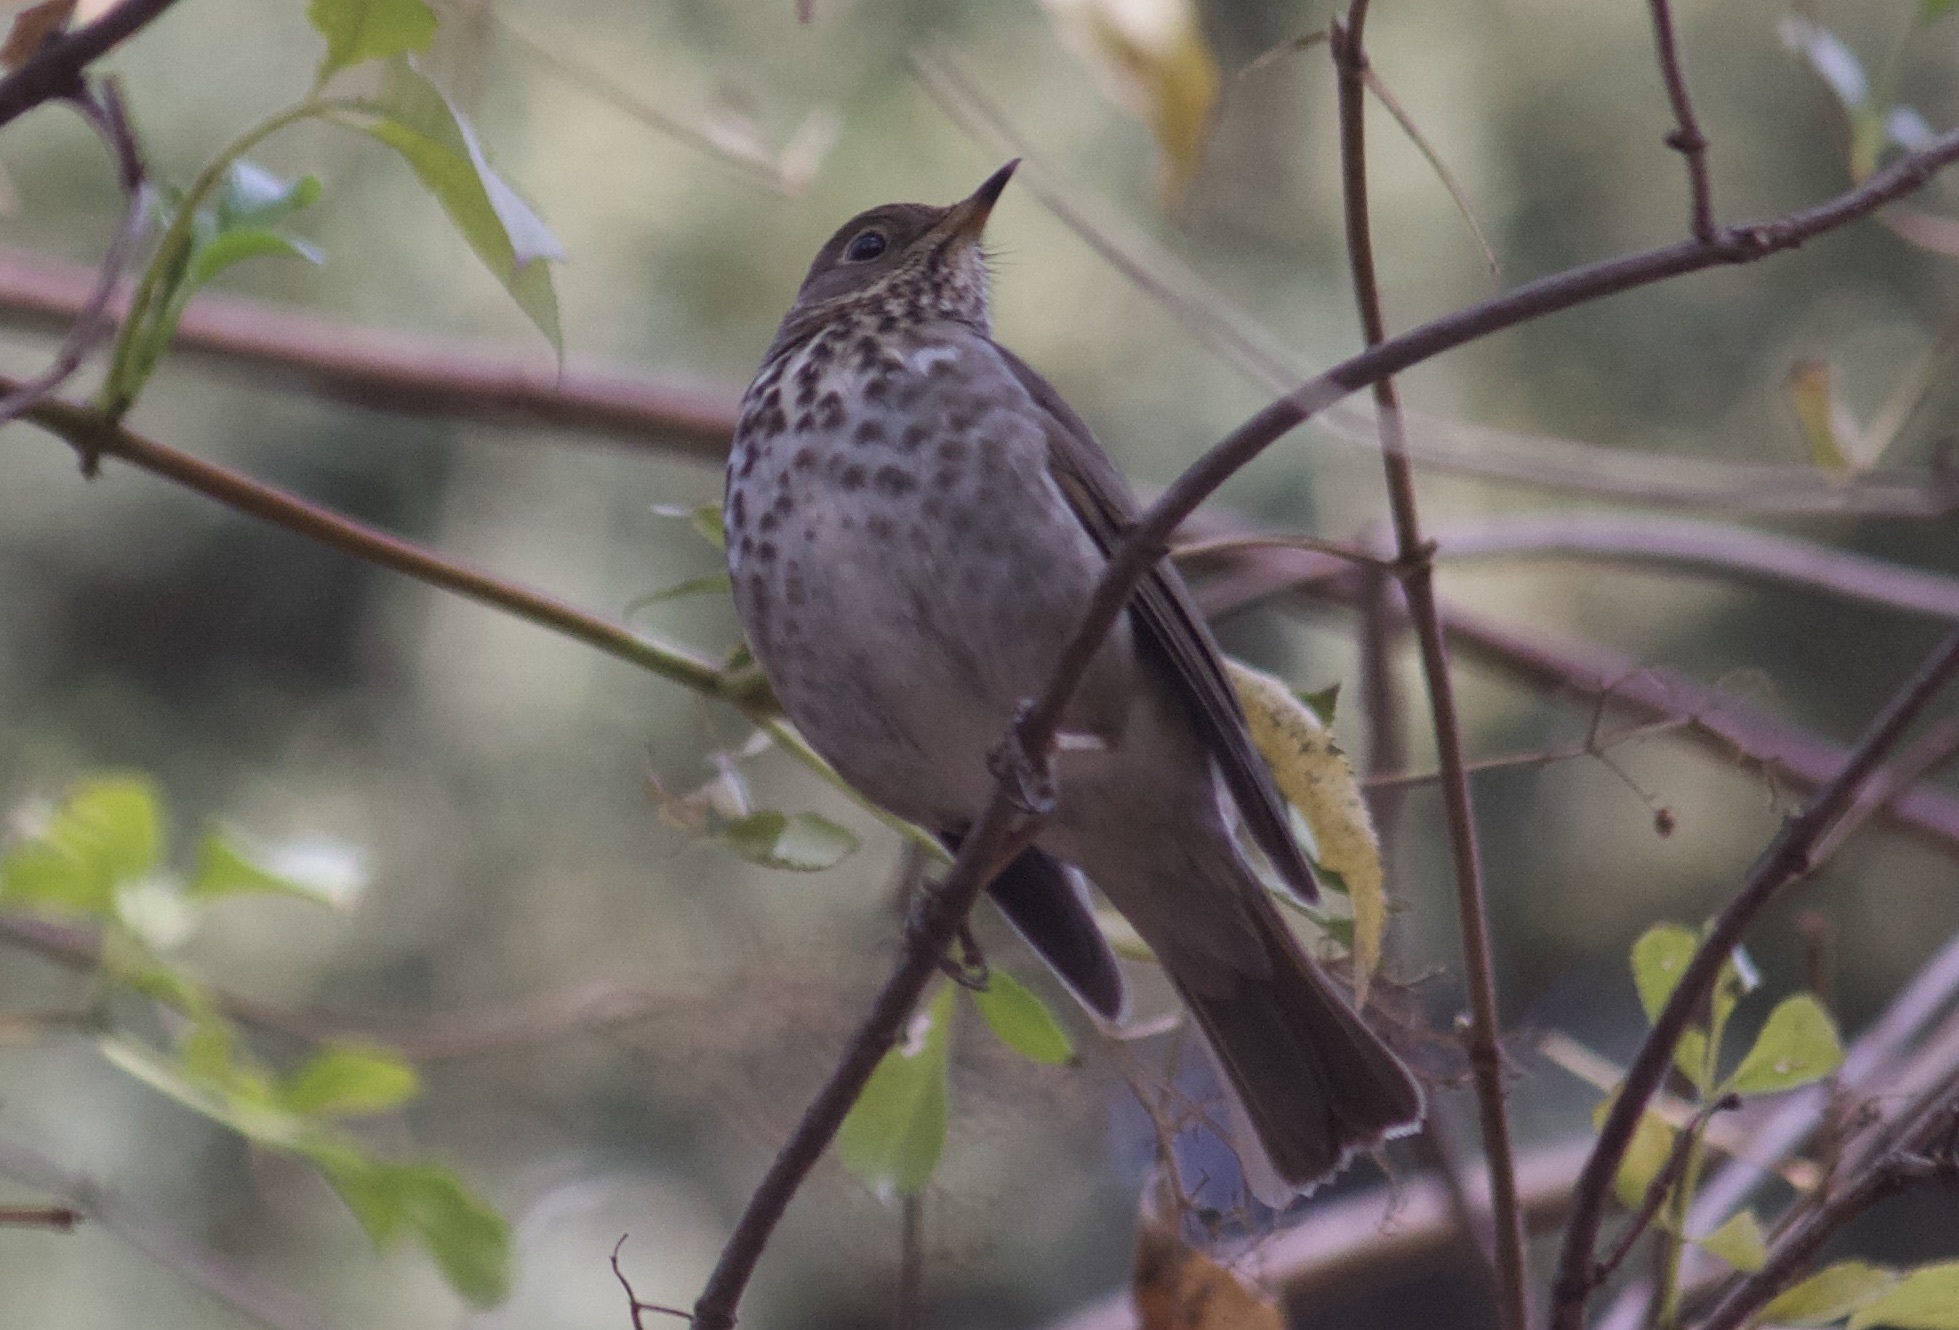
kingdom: Animalia
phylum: Chordata
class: Aves
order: Passeriformes
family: Turdidae
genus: Catharus
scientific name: Catharus guttatus
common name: Hermit thrush
